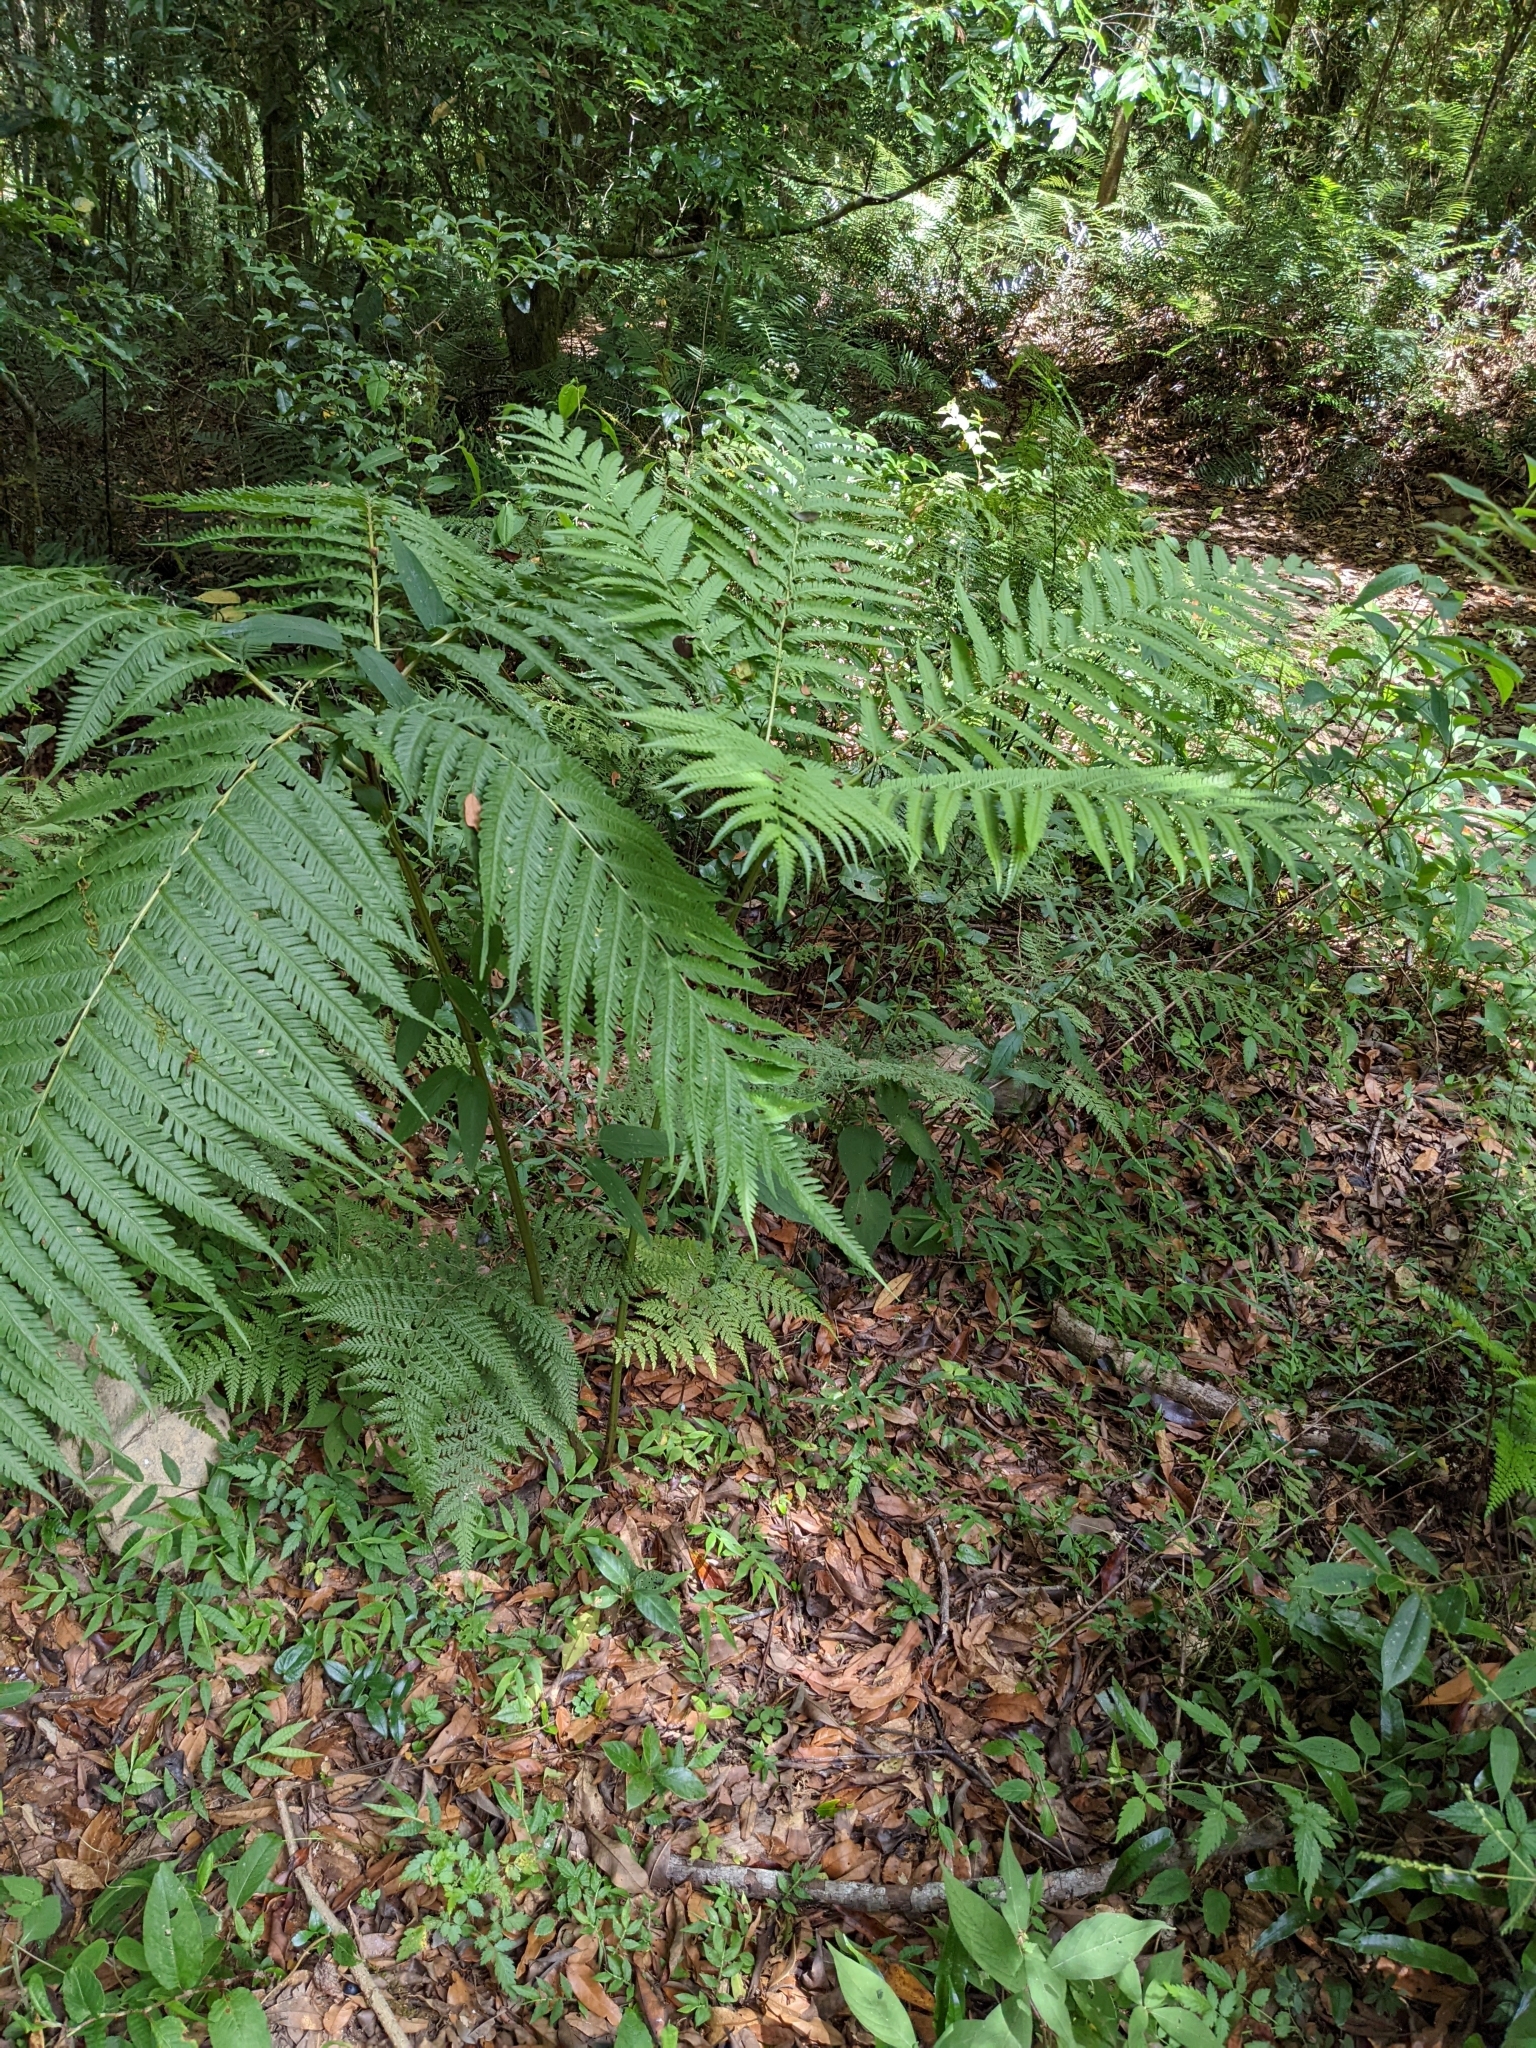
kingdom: Plantae
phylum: Tracheophyta
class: Polypodiopsida
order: Polypodiales
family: Pteridaceae
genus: Pteris
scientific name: Pteris wallichiana
